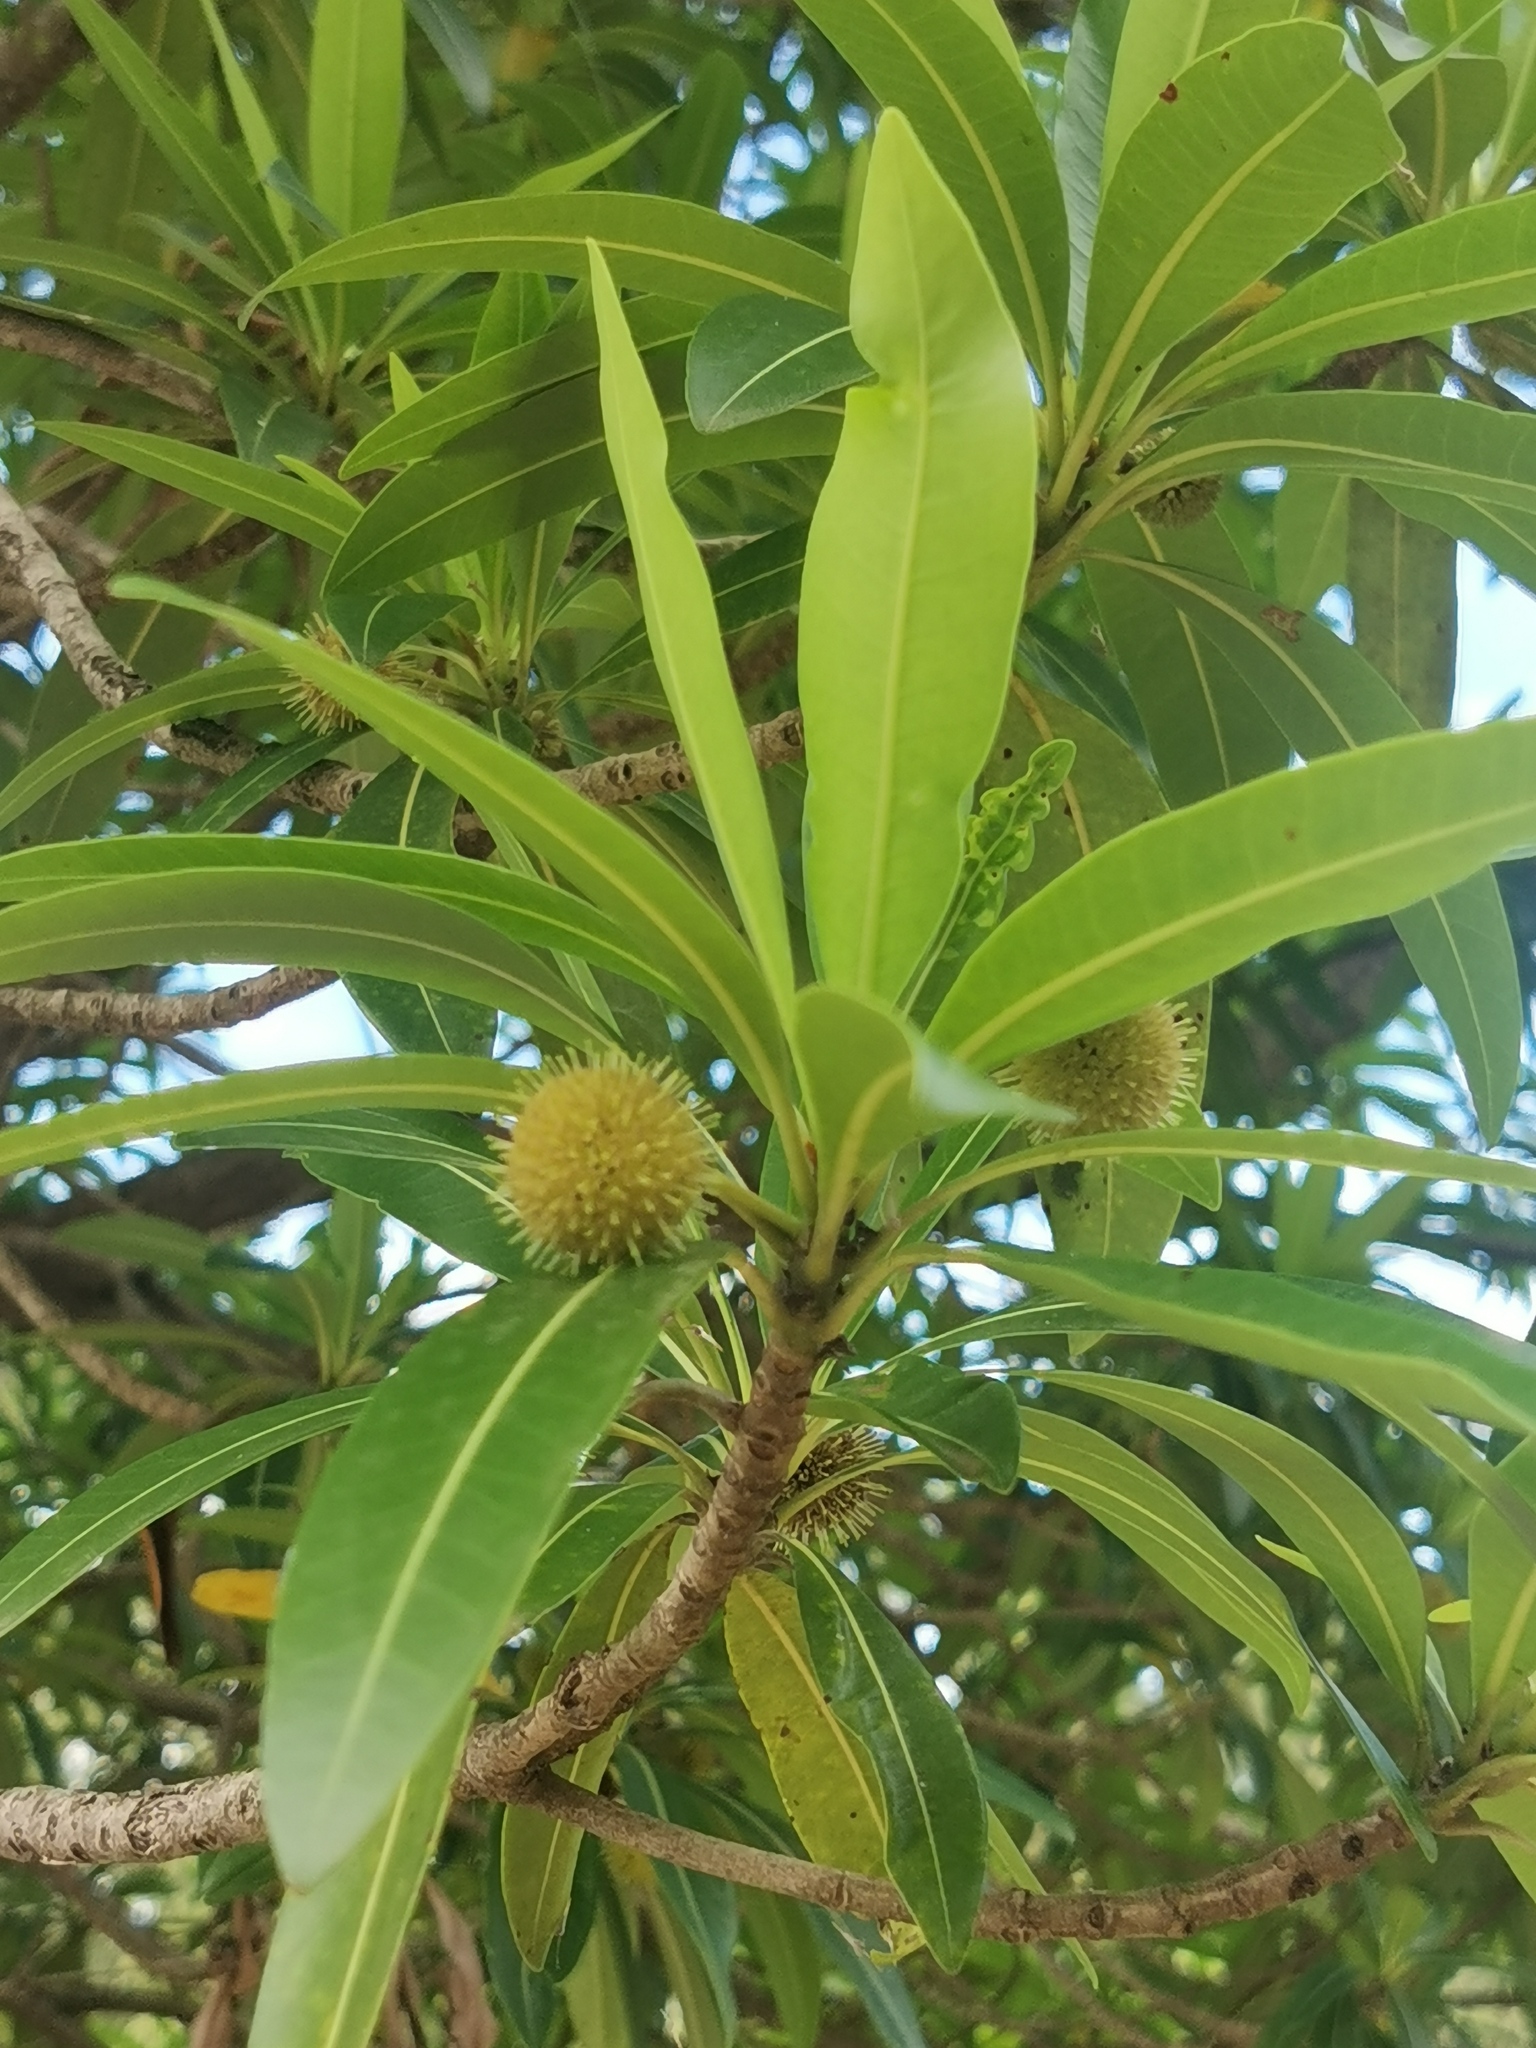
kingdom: Plantae
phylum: Tracheophyta
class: Magnoliopsida
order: Gentianales
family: Rubiaceae
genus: Breonadia
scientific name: Breonadia salicina
